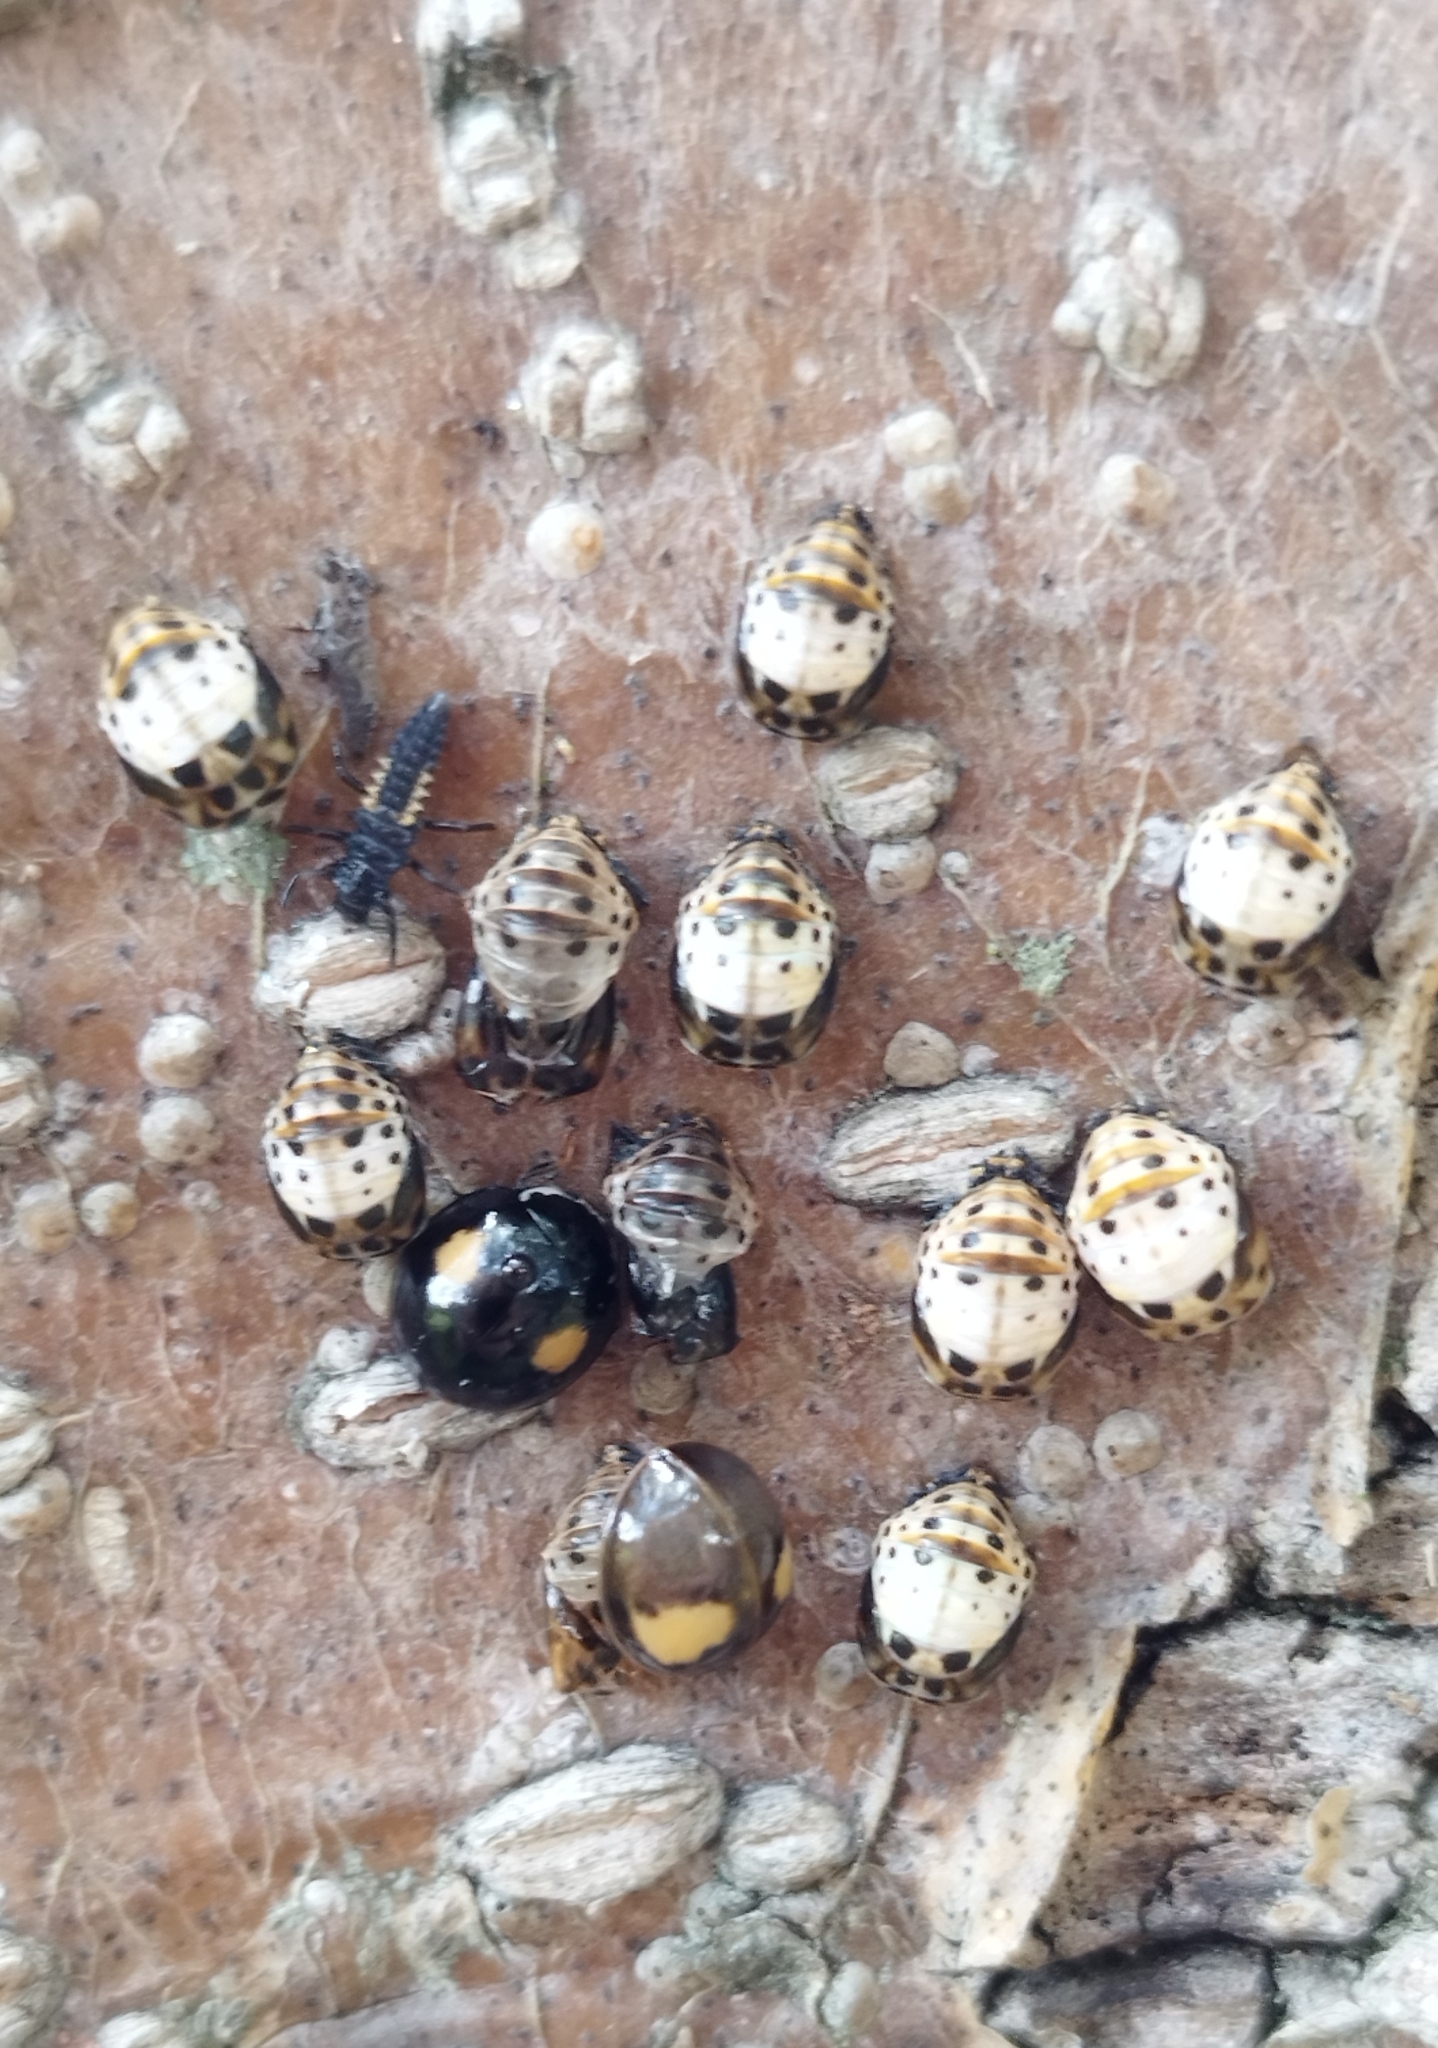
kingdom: Animalia
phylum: Arthropoda
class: Insecta
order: Coleoptera
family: Coccinellidae
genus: Olla
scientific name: Olla v-nigrum
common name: Ashy gray lady beetle
